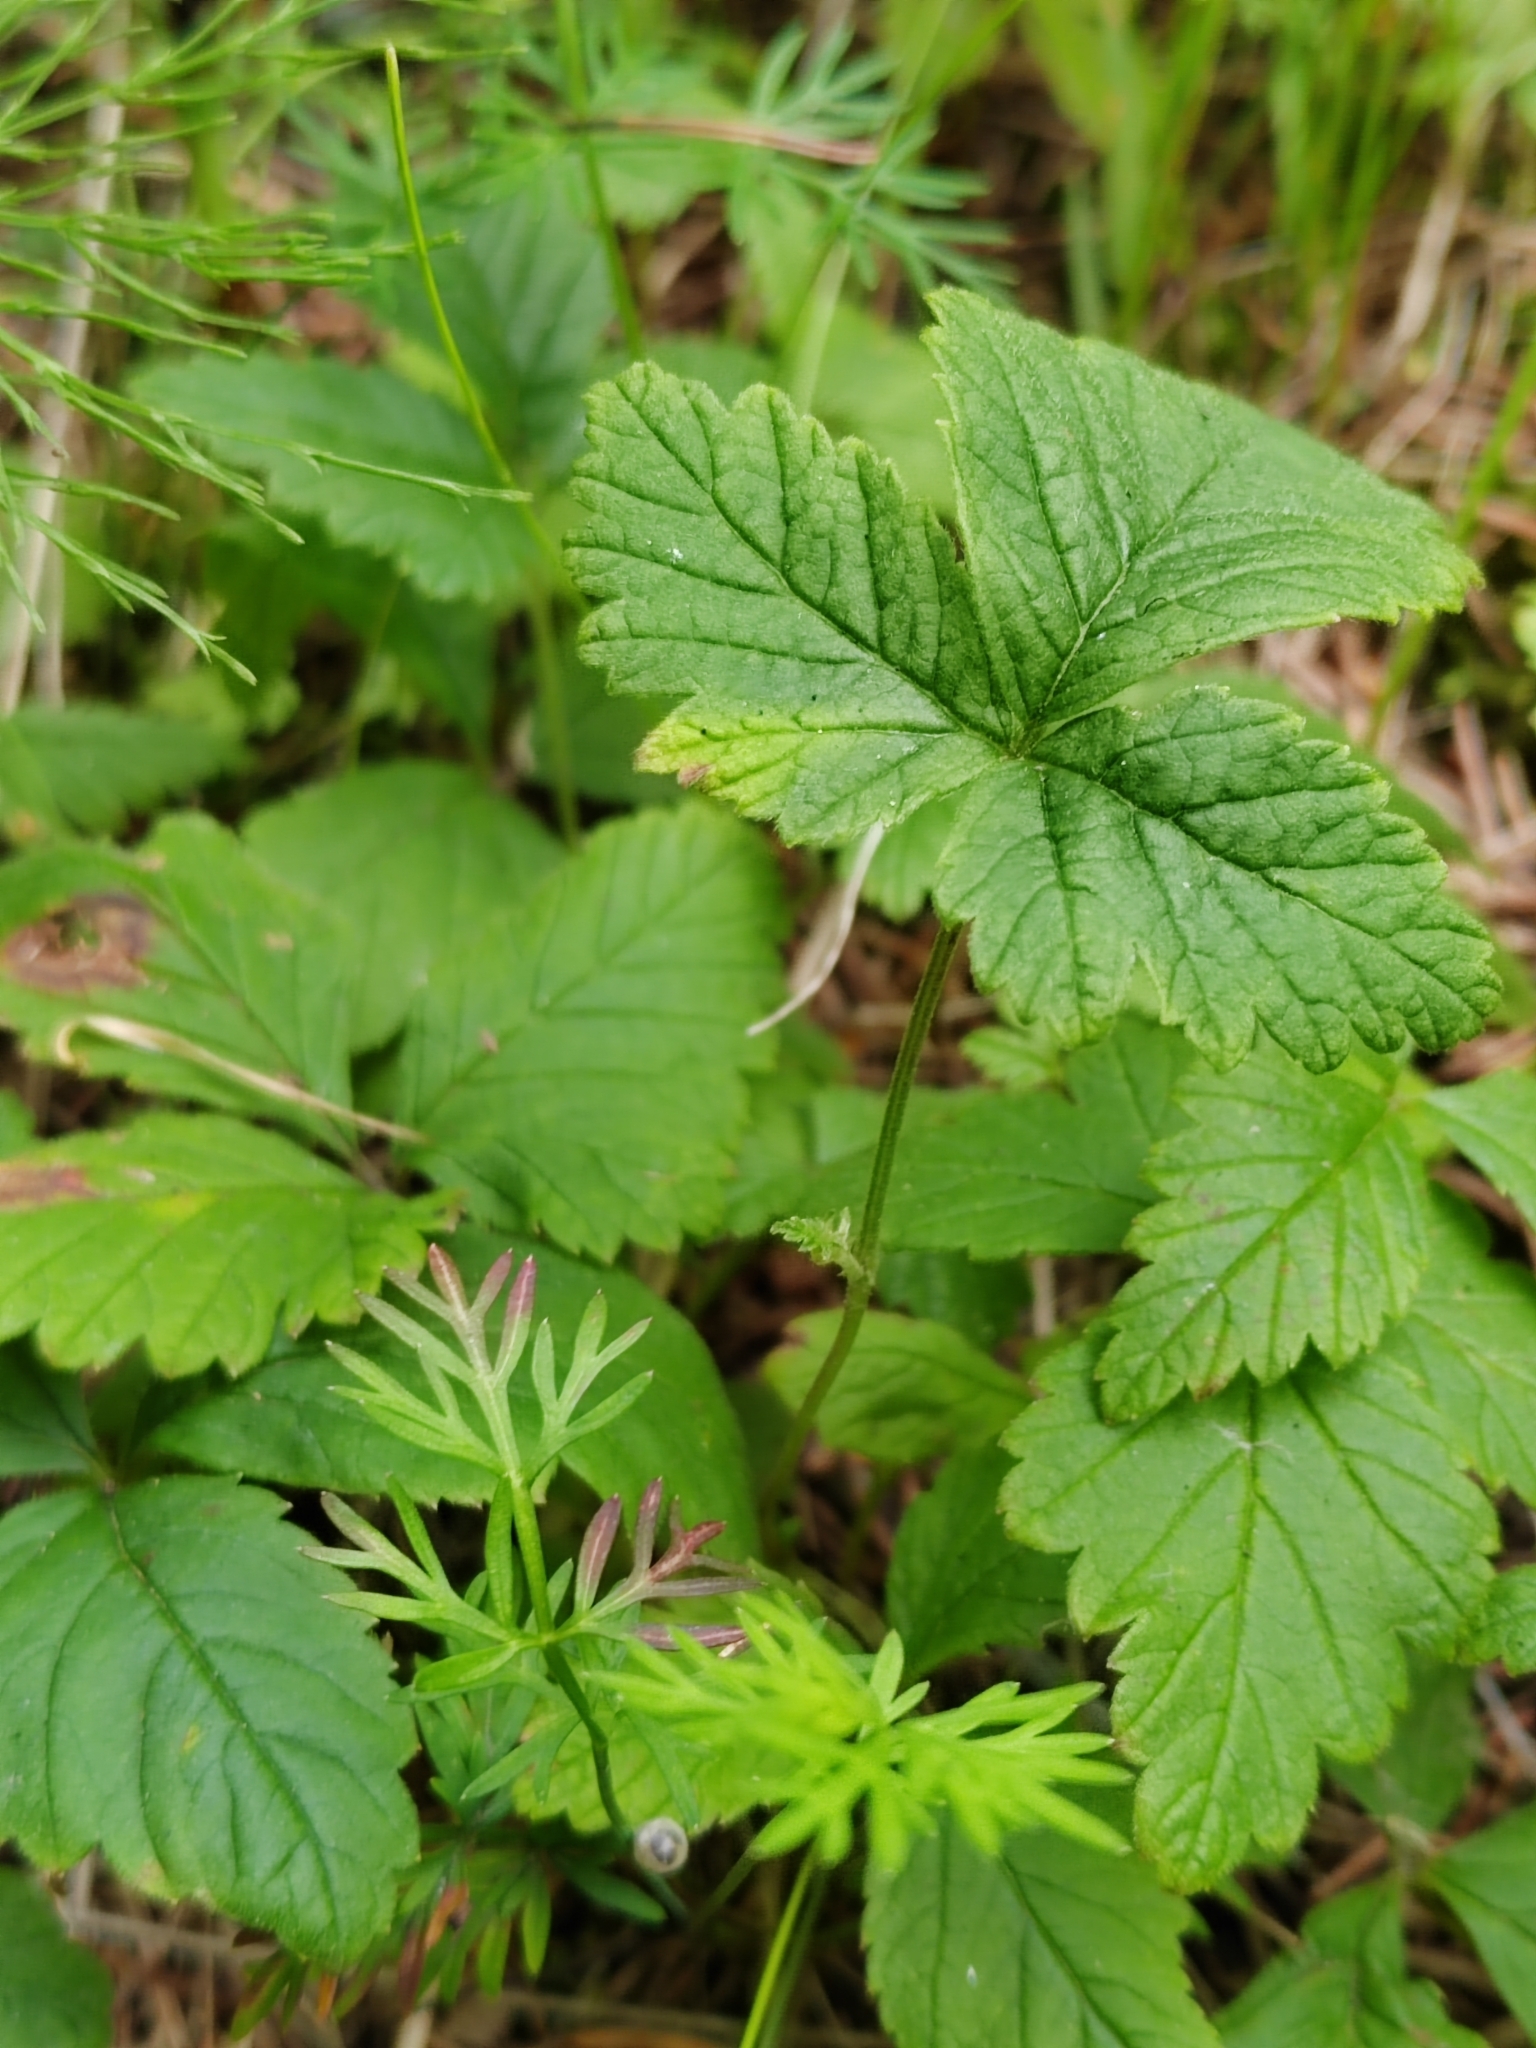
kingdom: Plantae
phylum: Tracheophyta
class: Magnoliopsida
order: Rosales
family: Rosaceae
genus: Rubus
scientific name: Rubus arcticus
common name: Arctic bramble
